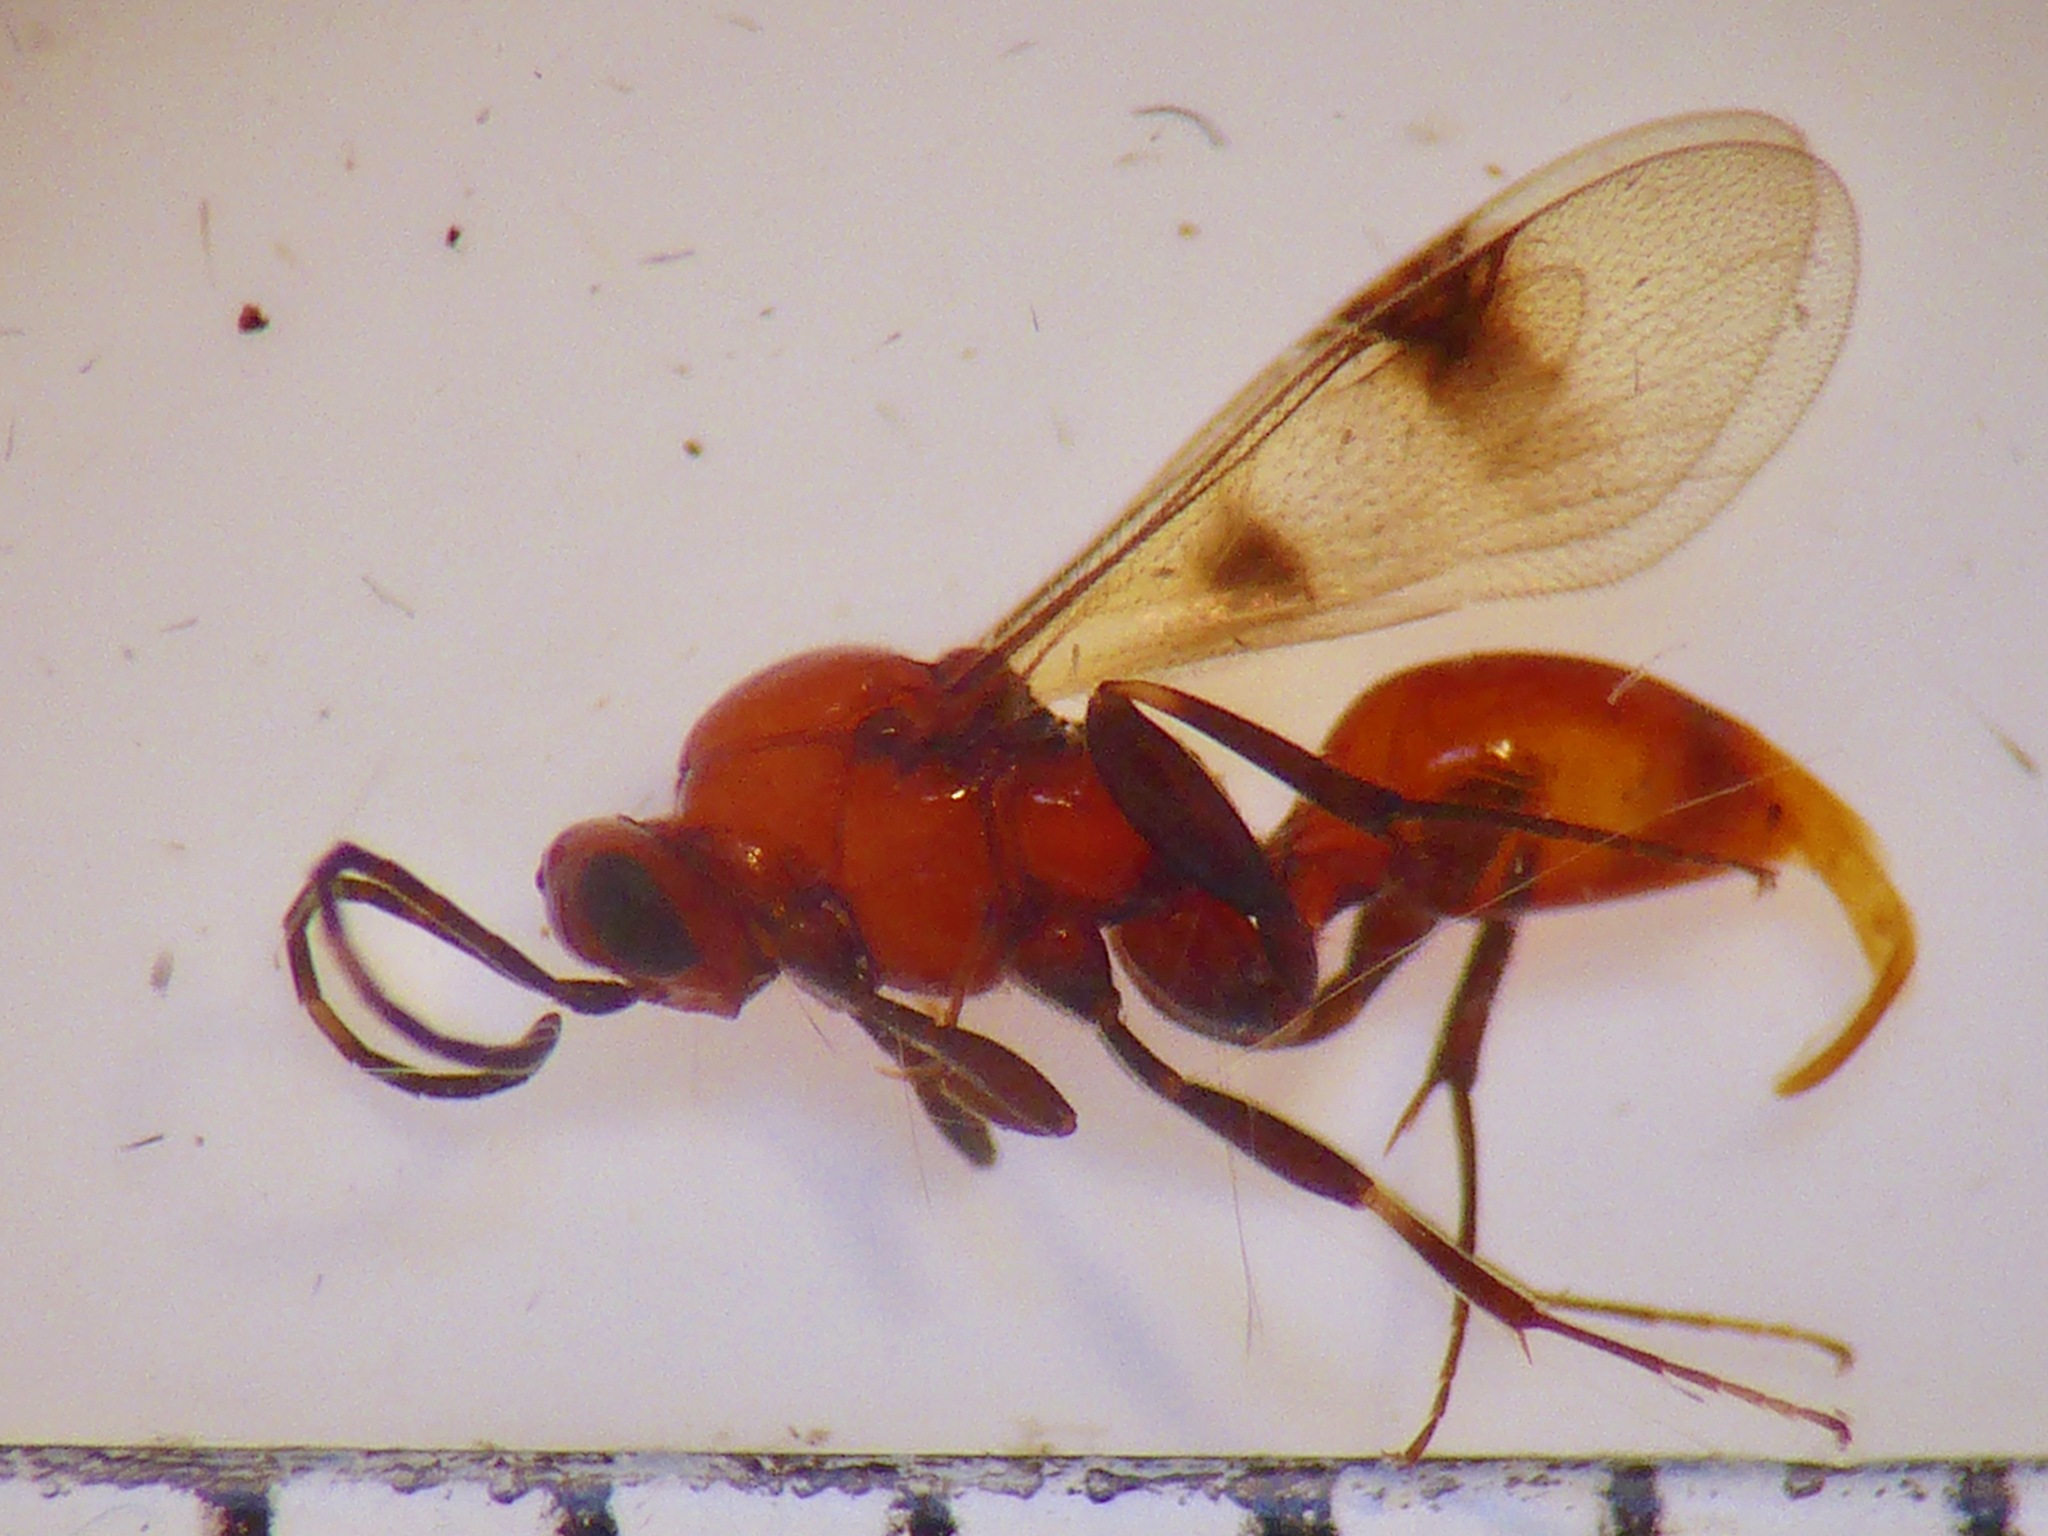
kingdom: Animalia
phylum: Arthropoda
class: Insecta
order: Hymenoptera
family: Proctotrupidae
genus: Fustiserphus
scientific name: Fustiserphus
